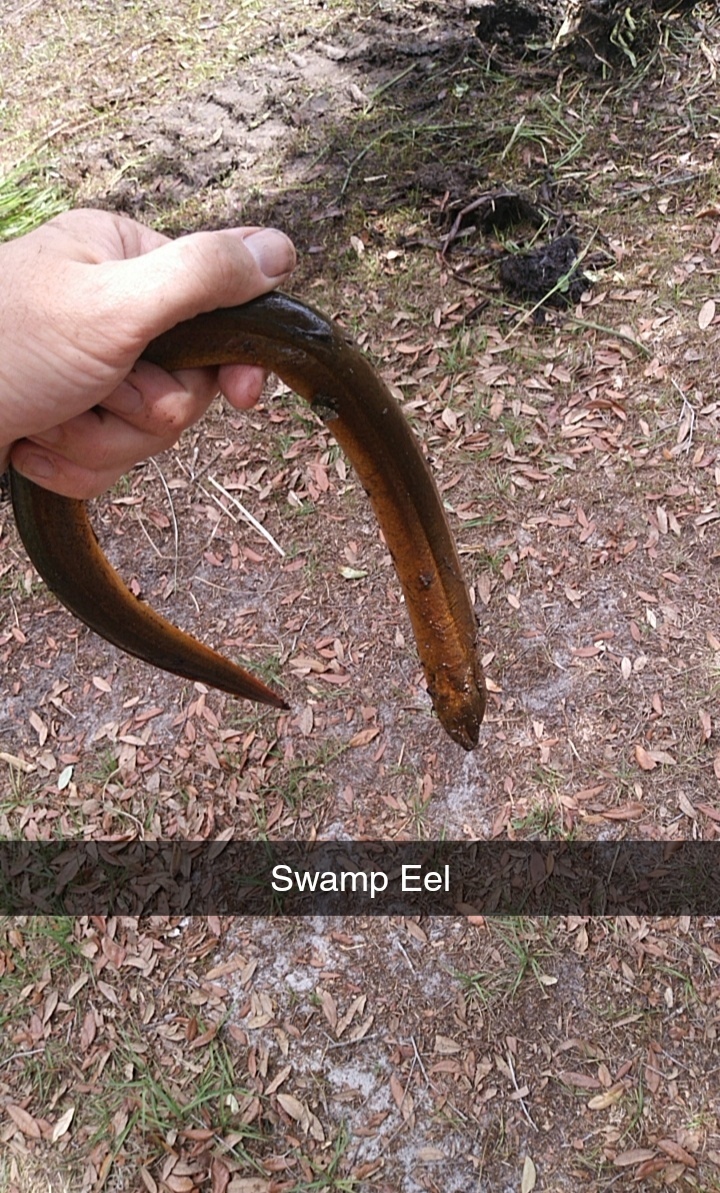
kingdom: Animalia
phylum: Chordata
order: Synbranchiformes
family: Synbranchidae
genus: Monopterus
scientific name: Monopterus
